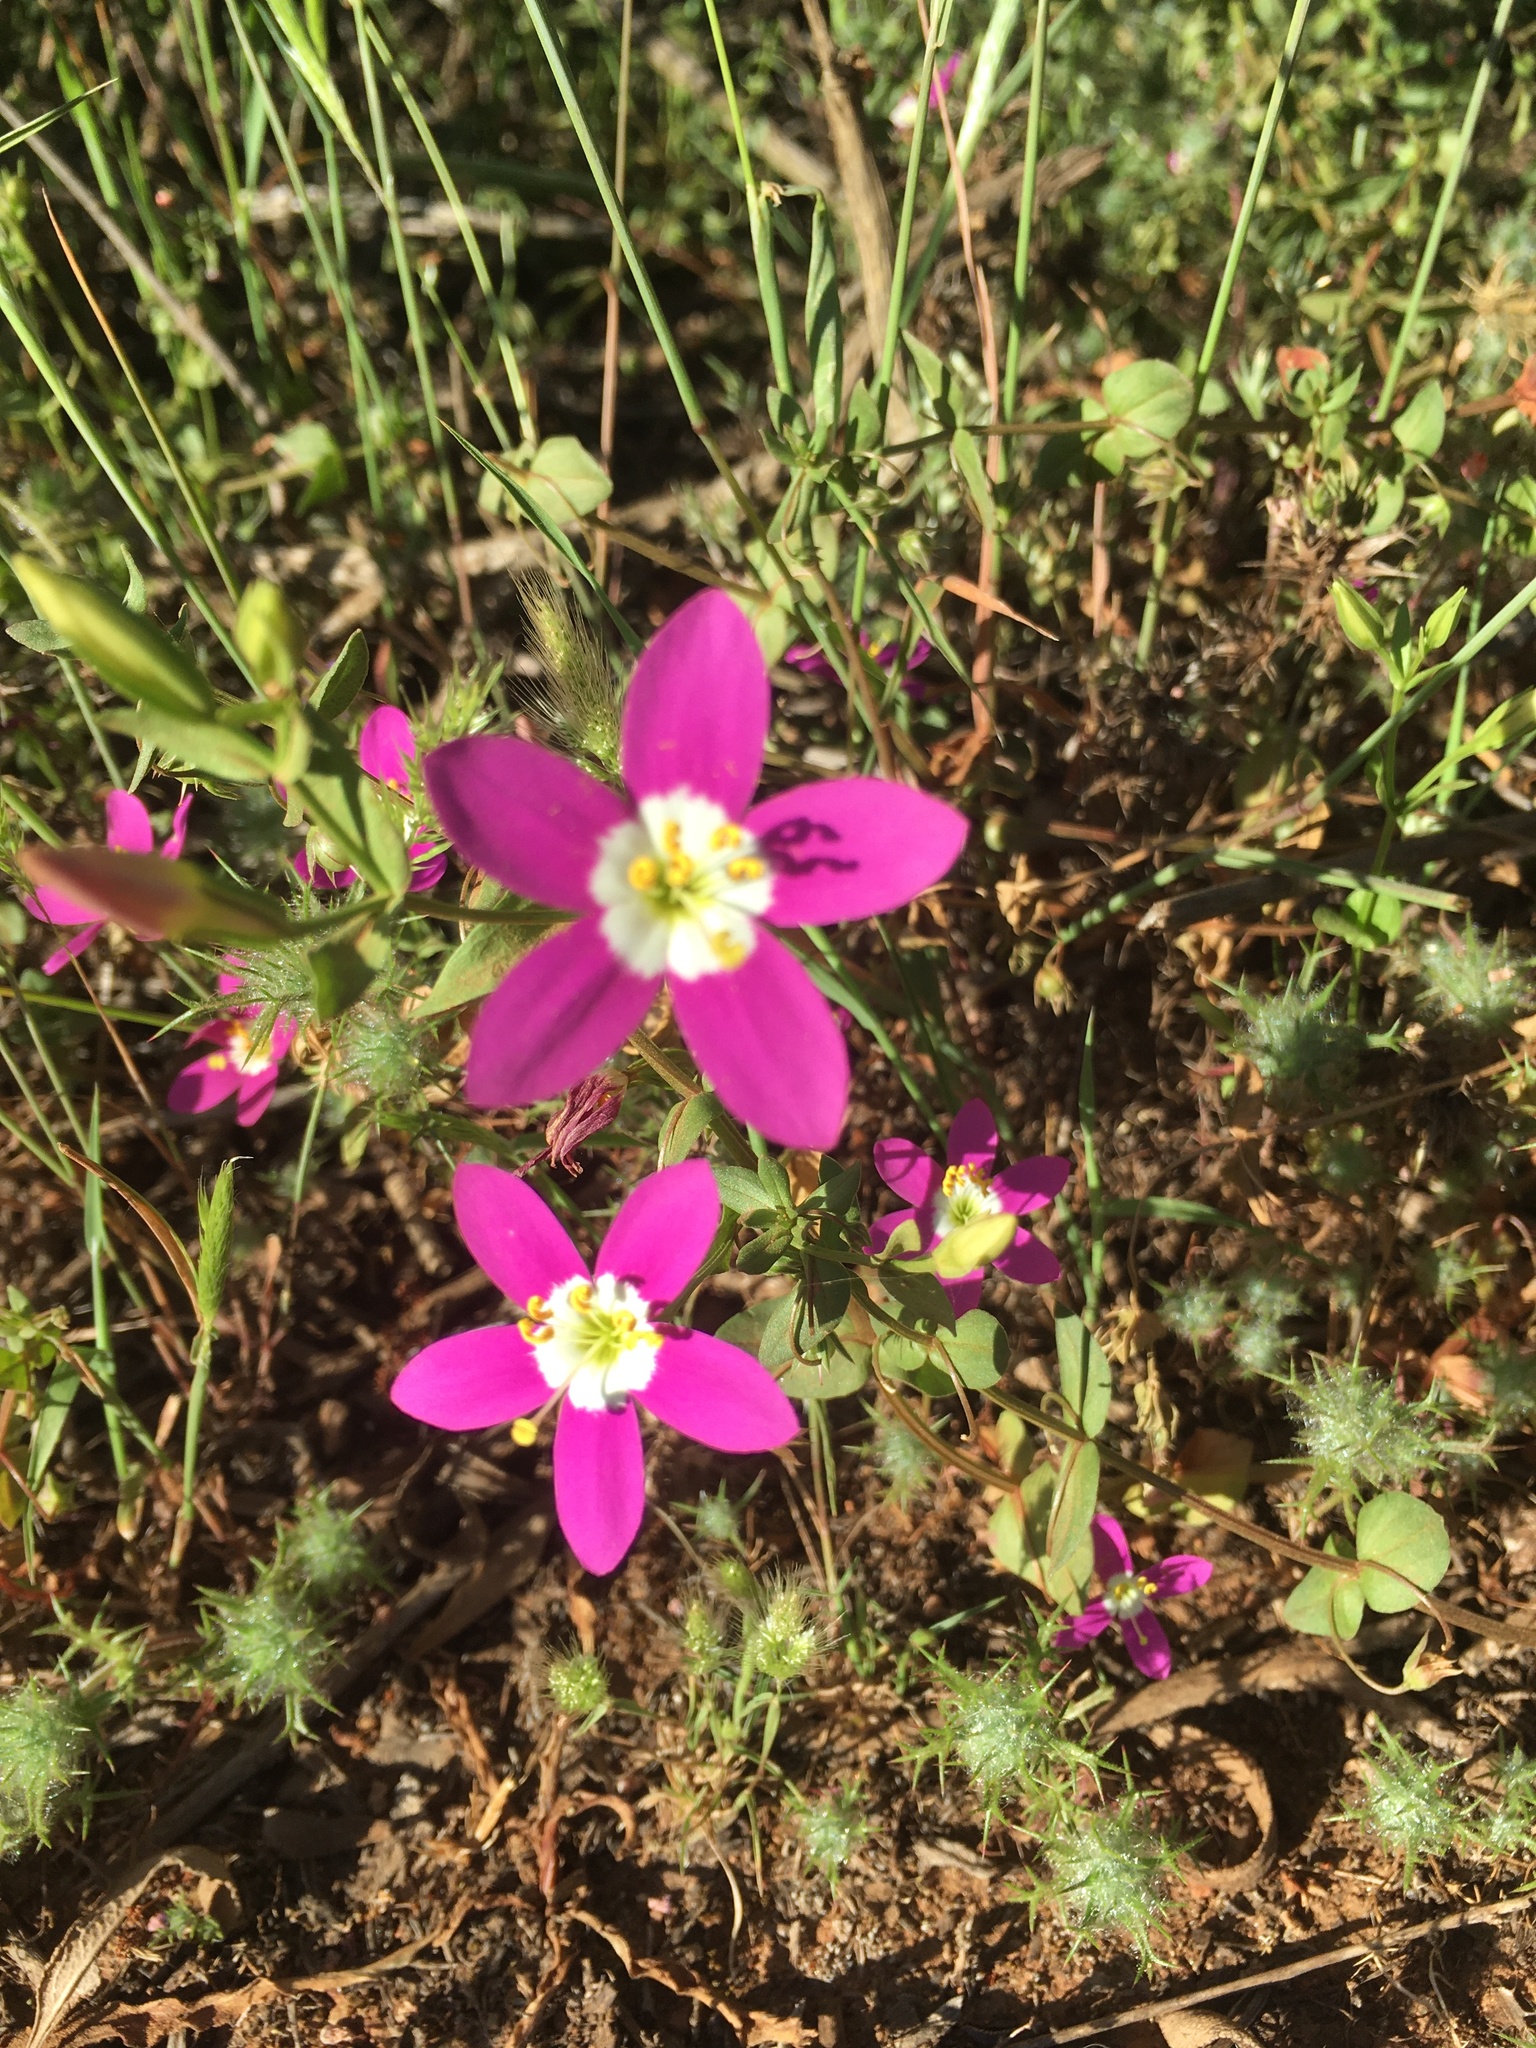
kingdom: Plantae
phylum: Tracheophyta
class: Magnoliopsida
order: Gentianales
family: Gentianaceae
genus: Zeltnera
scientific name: Zeltnera venusta
